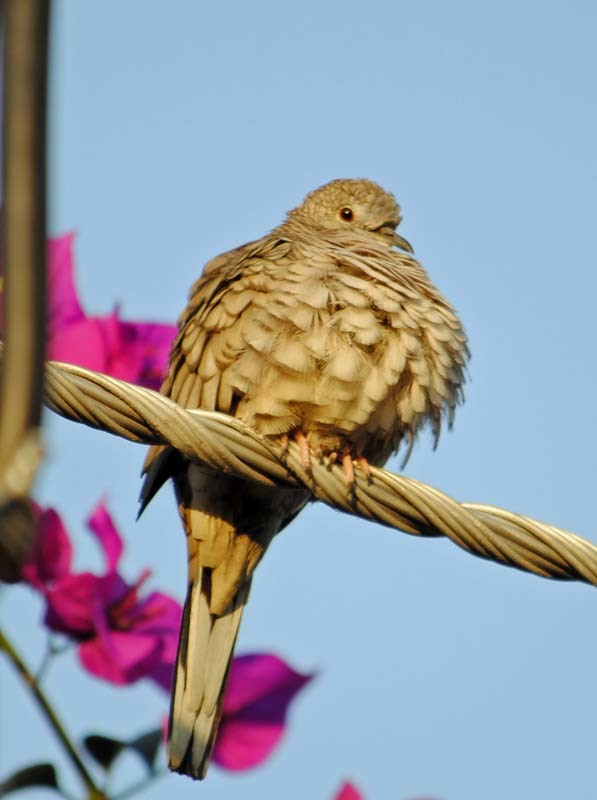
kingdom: Animalia
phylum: Chordata
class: Aves
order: Columbiformes
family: Columbidae
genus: Columbina
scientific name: Columbina inca
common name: Inca dove
